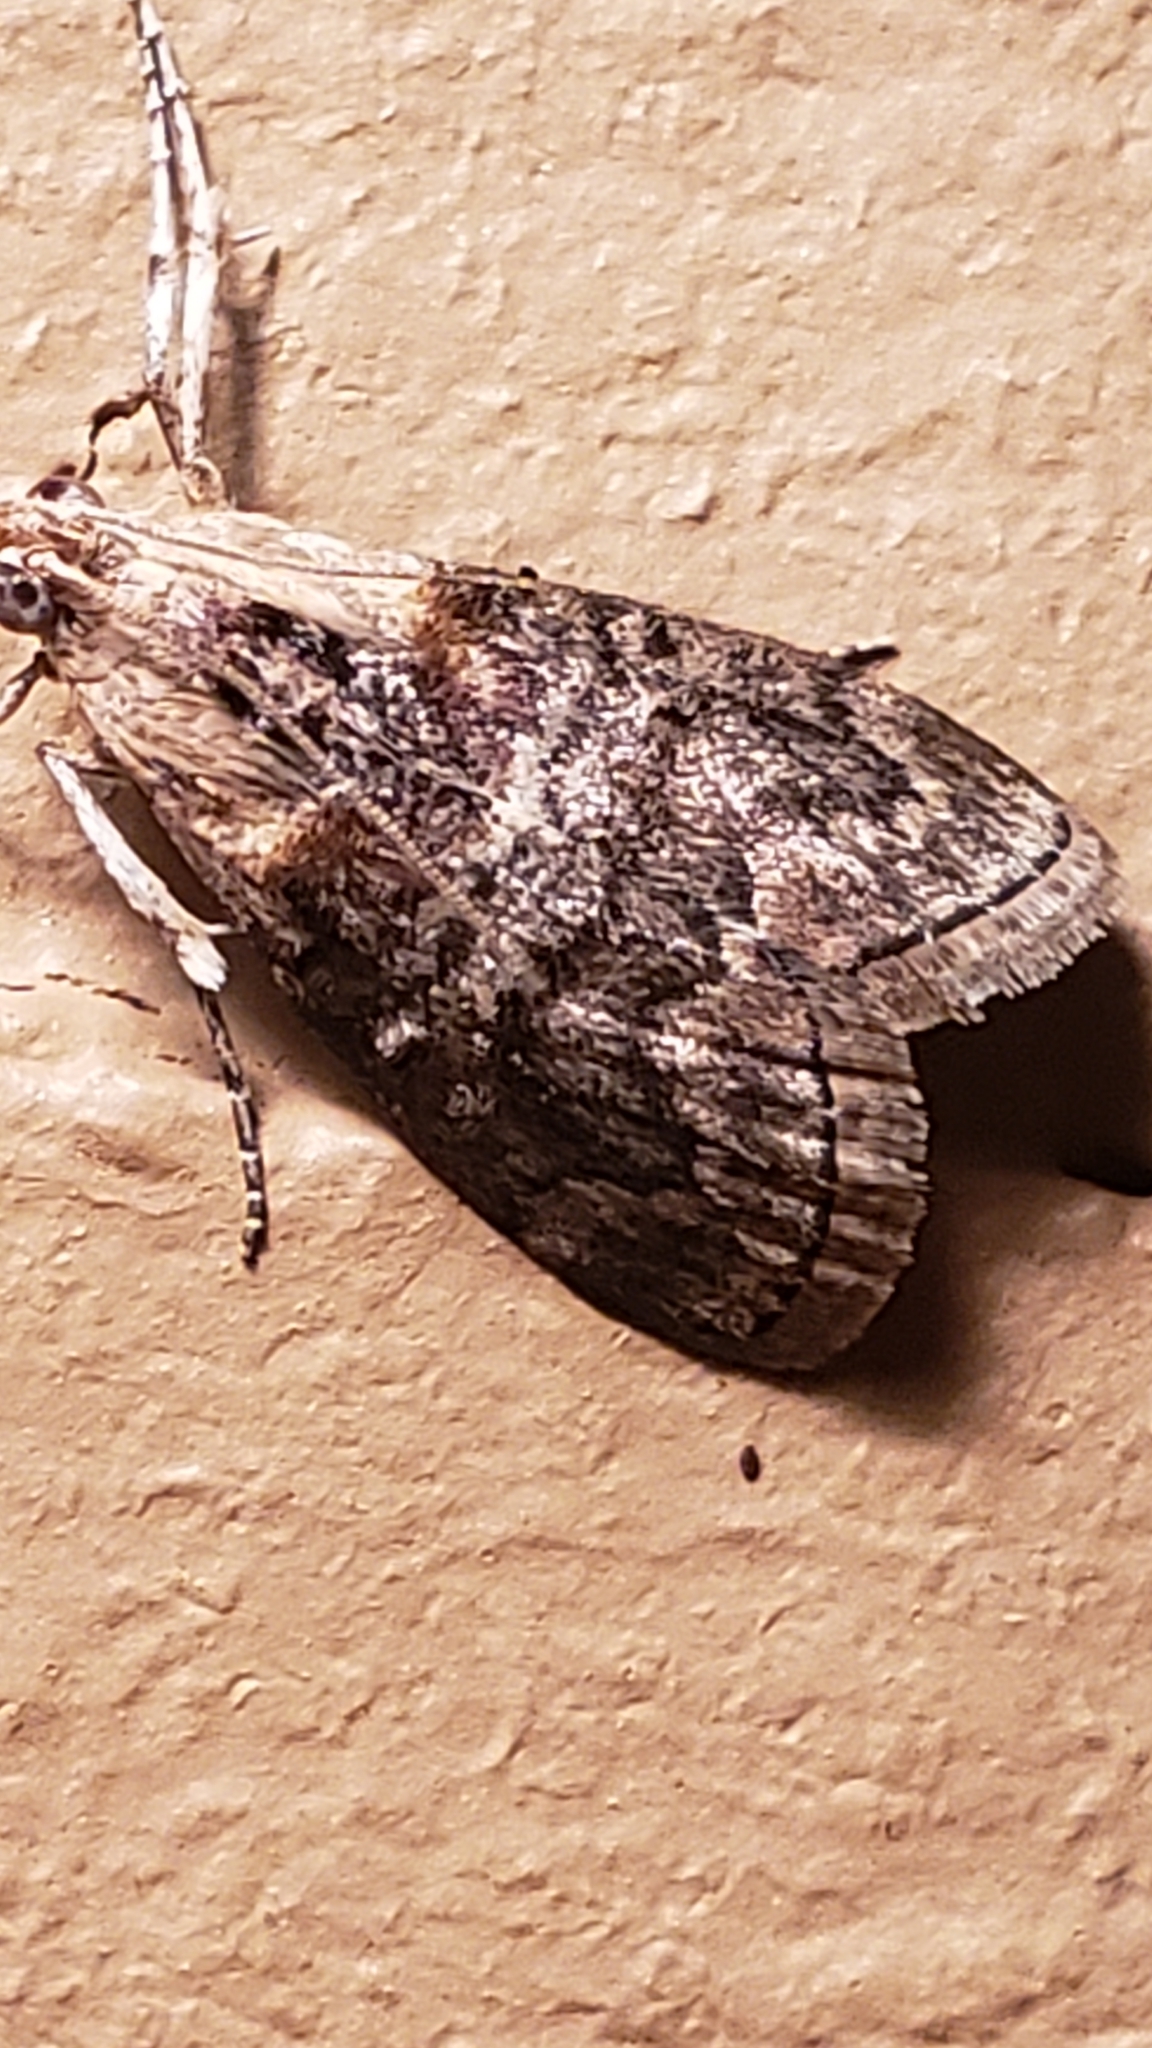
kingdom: Animalia
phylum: Arthropoda
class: Insecta
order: Lepidoptera
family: Pyralidae
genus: Pococera
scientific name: Pococera expandens
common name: Striped oak webworm moth
